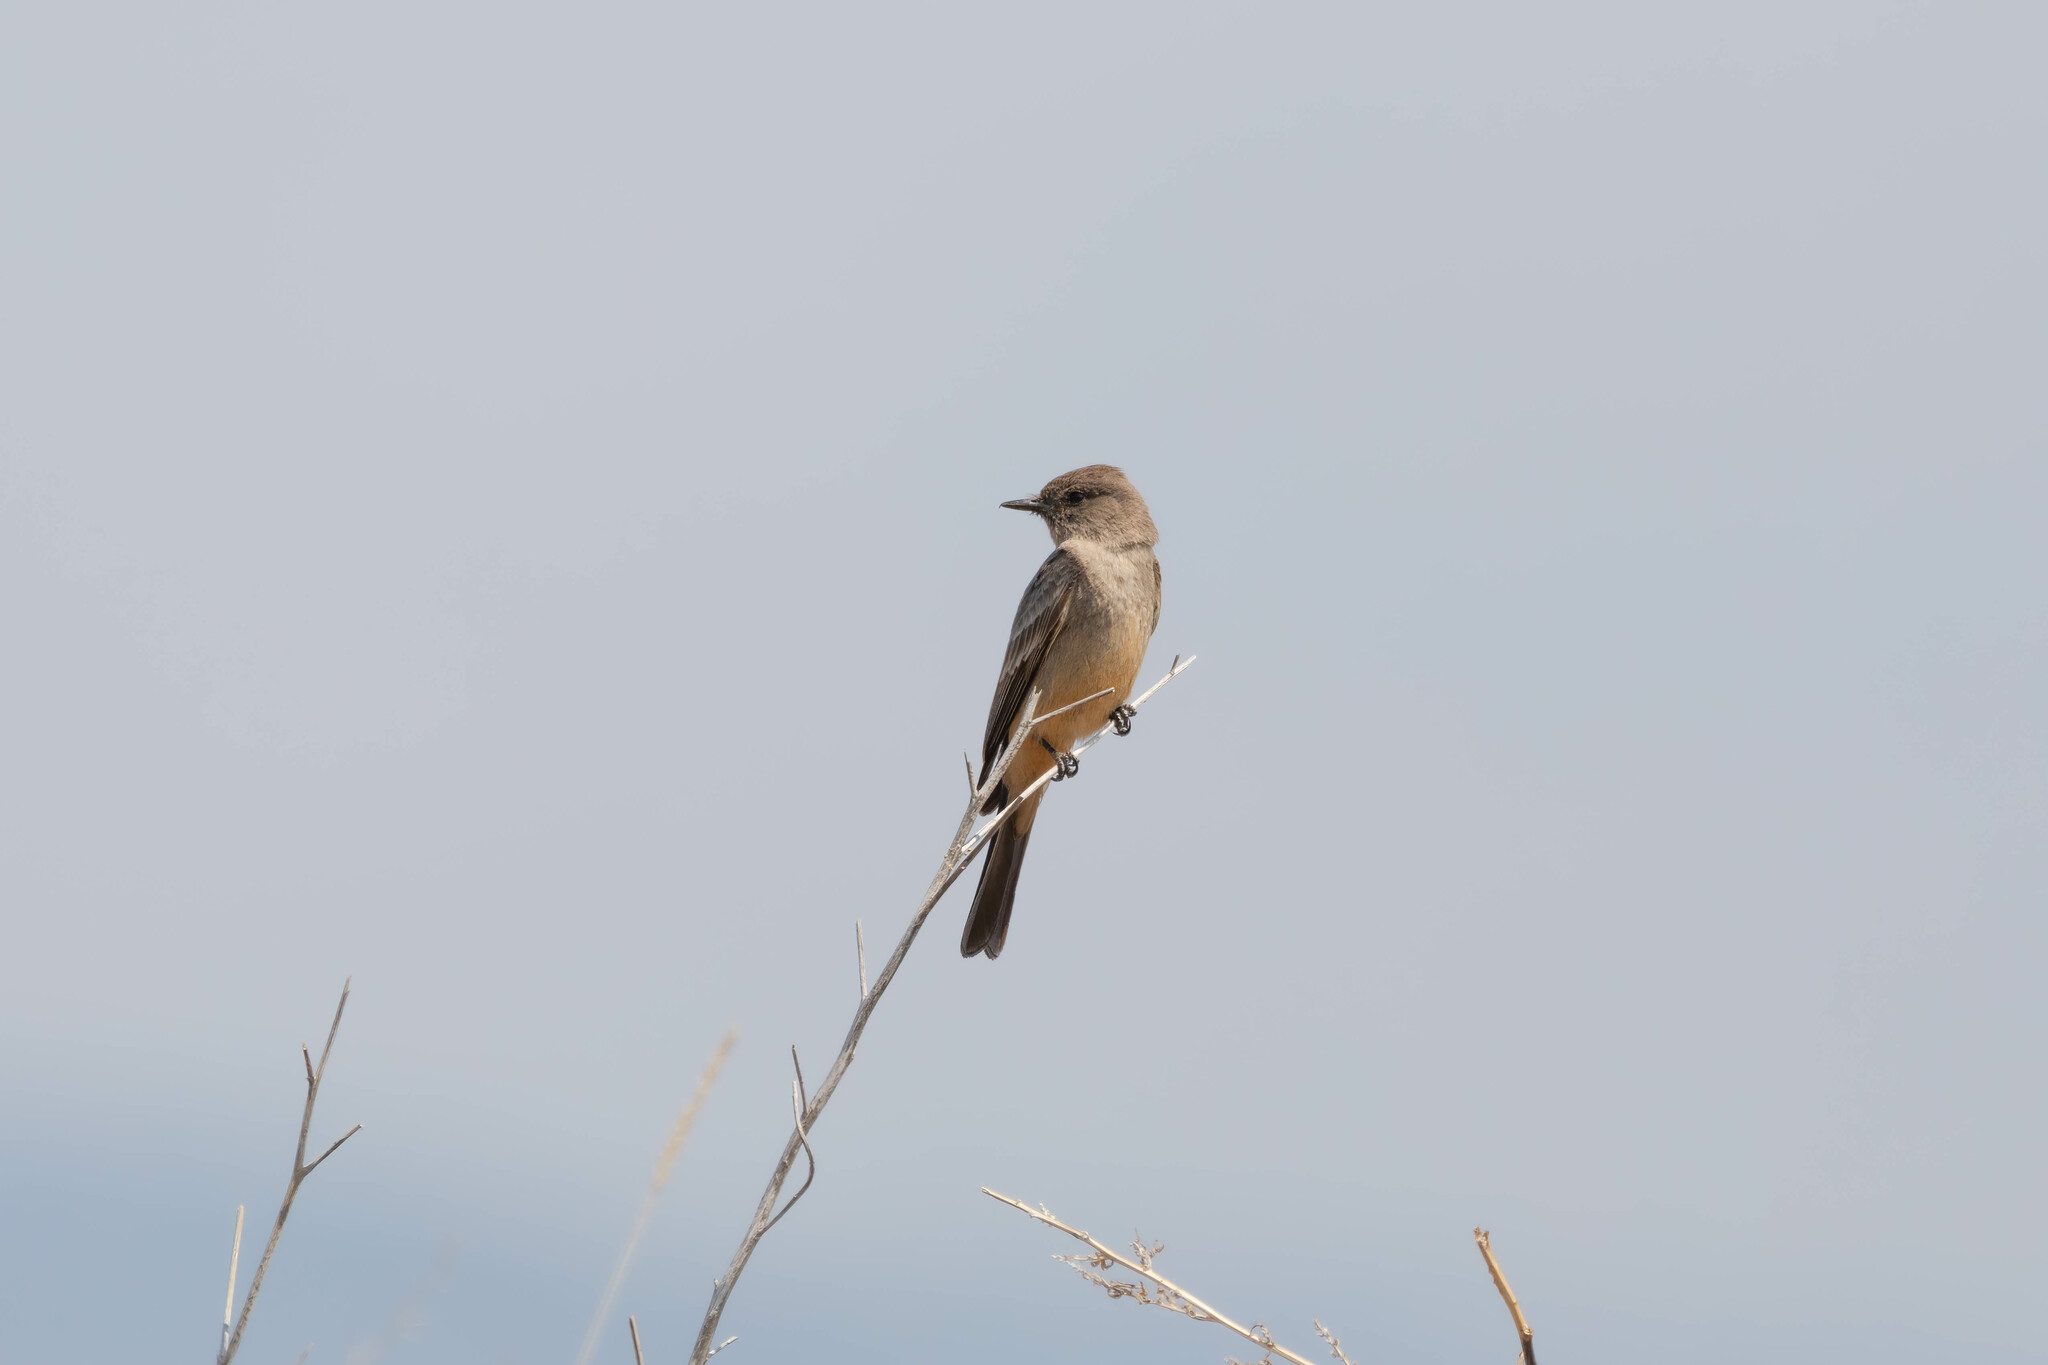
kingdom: Animalia
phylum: Chordata
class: Aves
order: Passeriformes
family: Tyrannidae
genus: Sayornis
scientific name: Sayornis saya
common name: Say's phoebe
